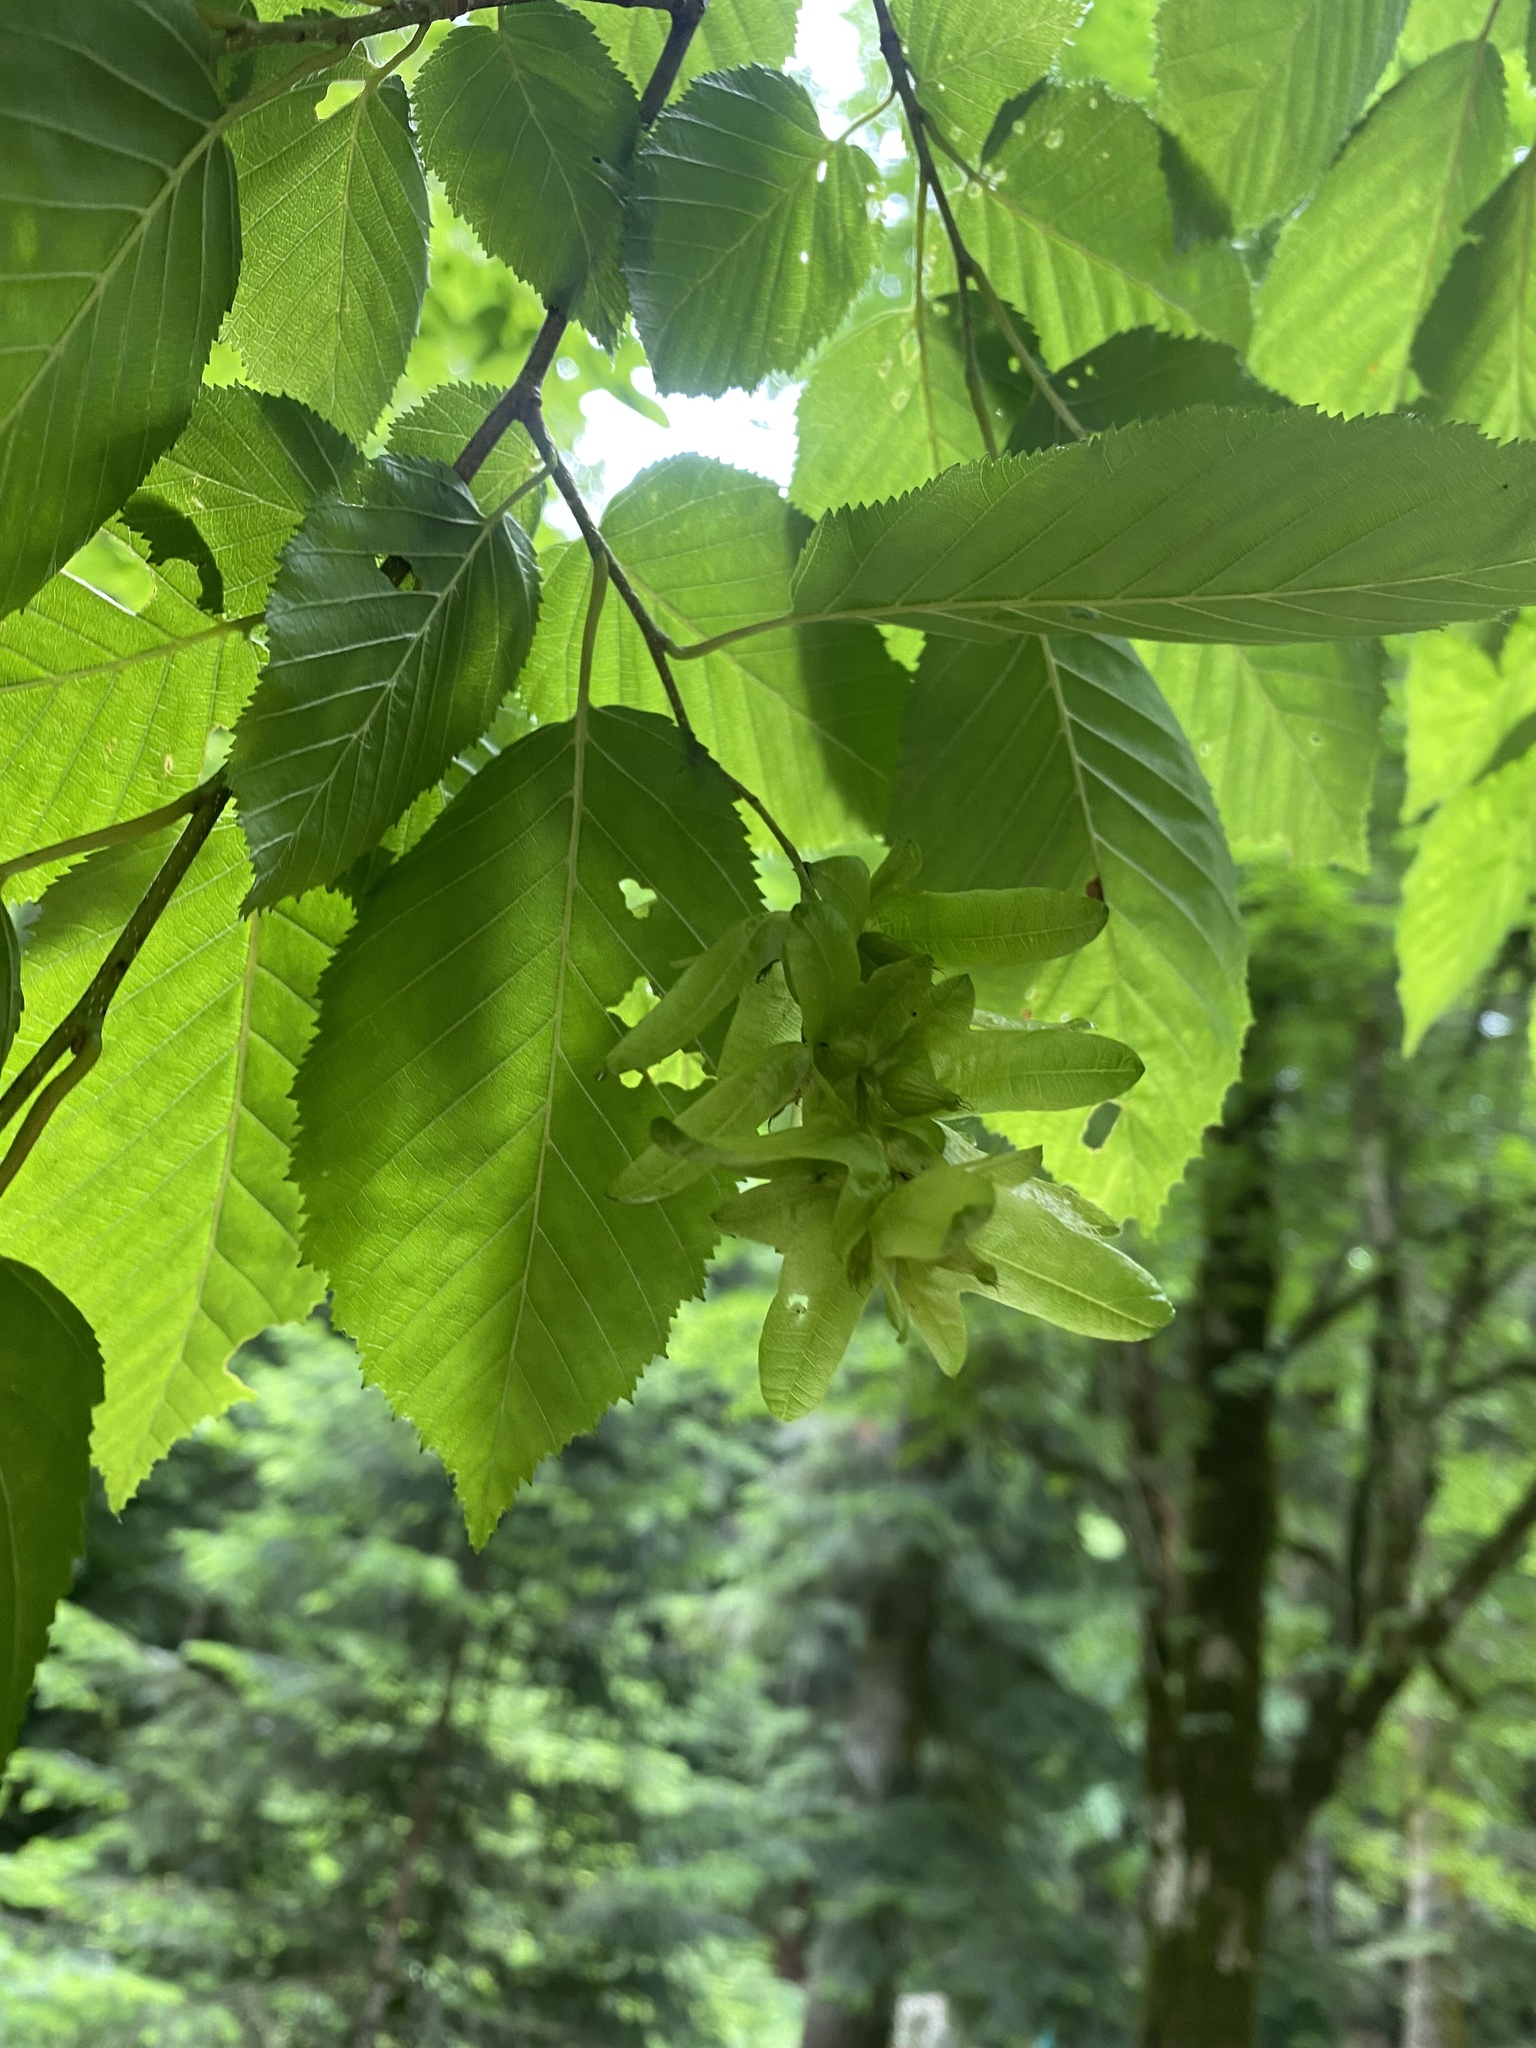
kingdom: Plantae
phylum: Tracheophyta
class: Magnoliopsida
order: Fagales
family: Betulaceae
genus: Carpinus
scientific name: Carpinus betulus
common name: Hornbeam
